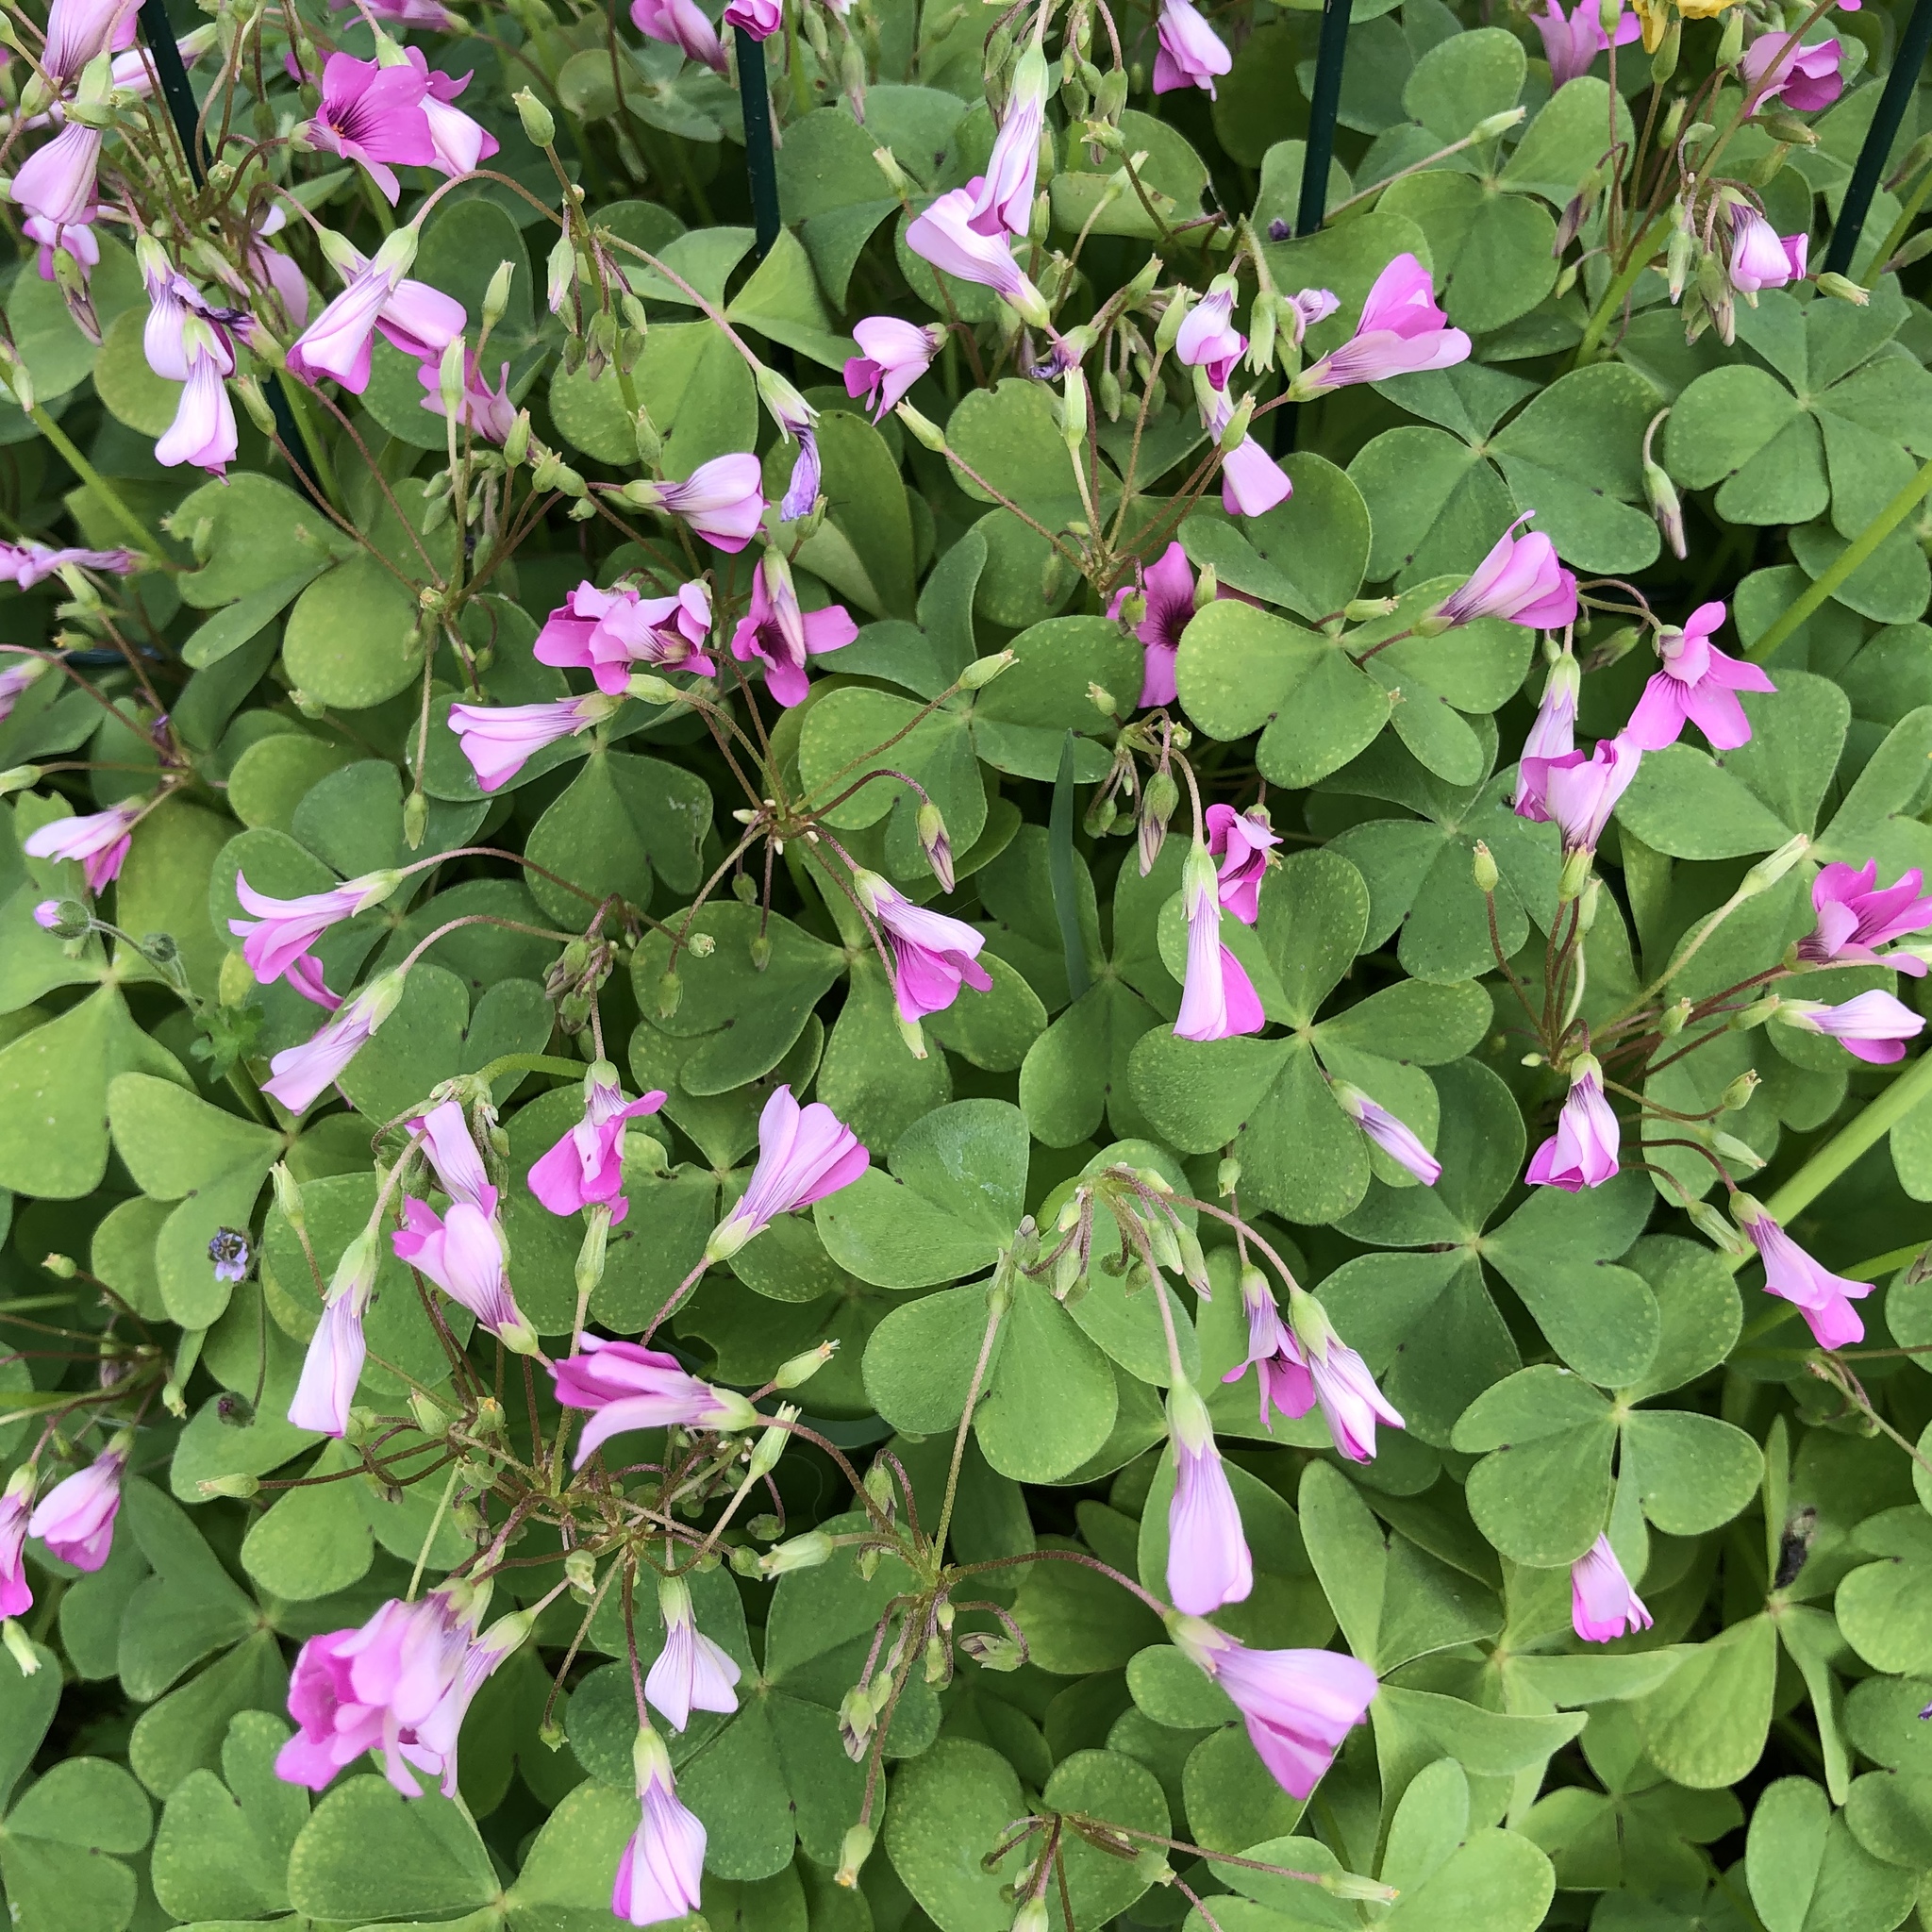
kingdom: Plantae
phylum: Tracheophyta
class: Magnoliopsida
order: Oxalidales
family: Oxalidaceae
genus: Oxalis
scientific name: Oxalis articulata
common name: Pink-sorrel
